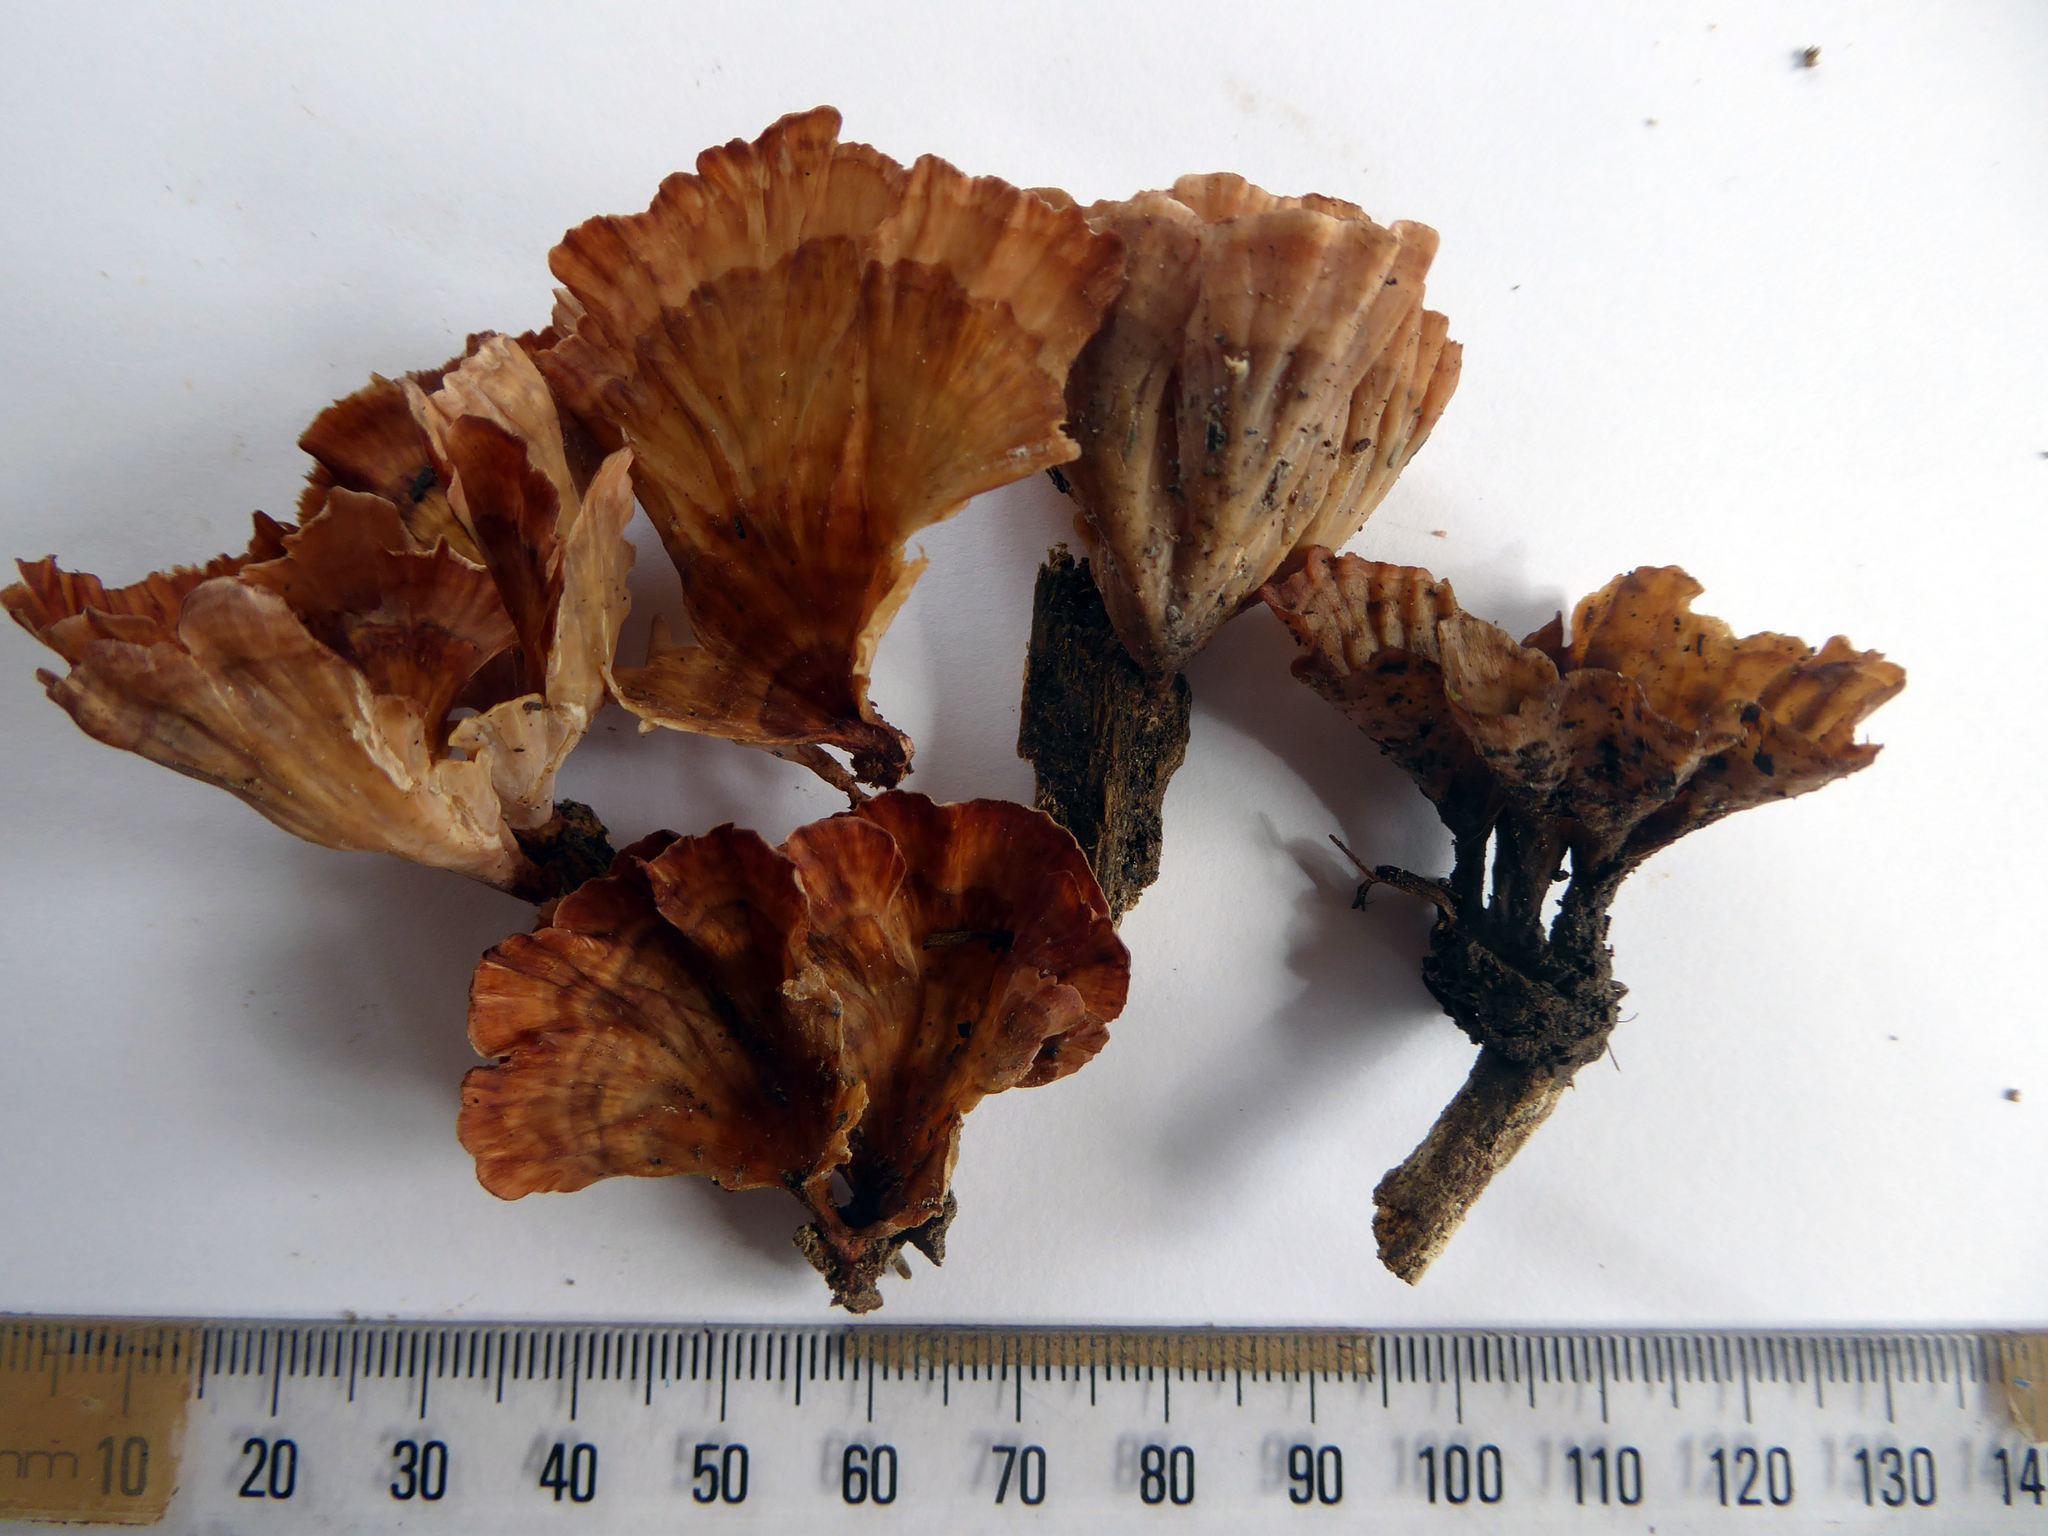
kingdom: Fungi
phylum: Basidiomycota
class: Agaricomycetes
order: Polyporales
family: Podoscyphaceae
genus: Podoscypha
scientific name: Podoscypha petalodes
